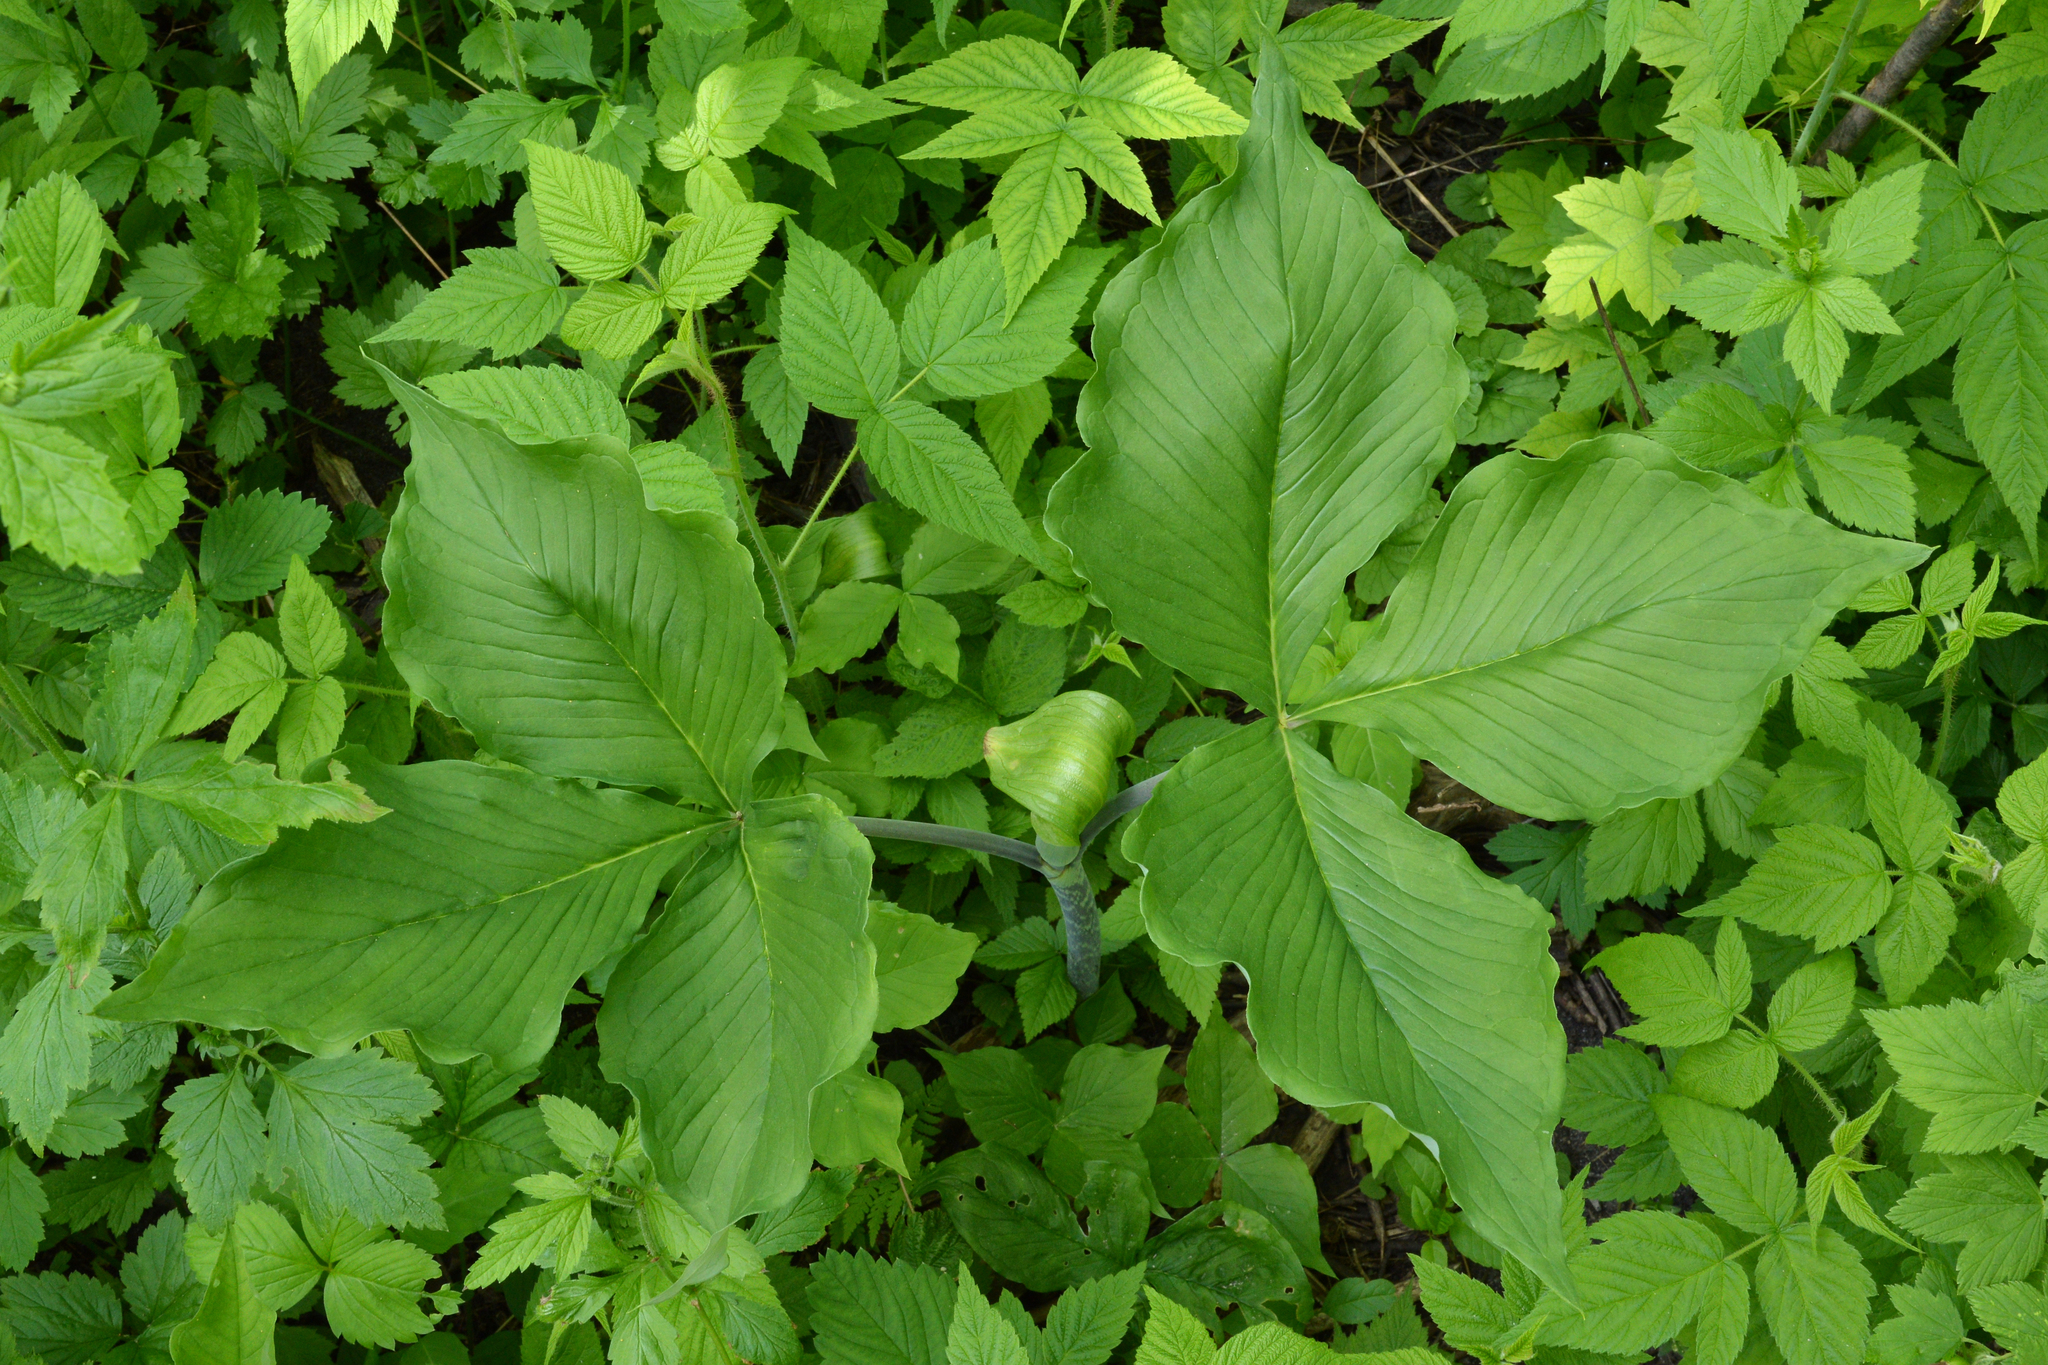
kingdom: Plantae
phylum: Tracheophyta
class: Liliopsida
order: Alismatales
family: Araceae
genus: Arisaema
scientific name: Arisaema triphyllum
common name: Jack-in-the-pulpit
